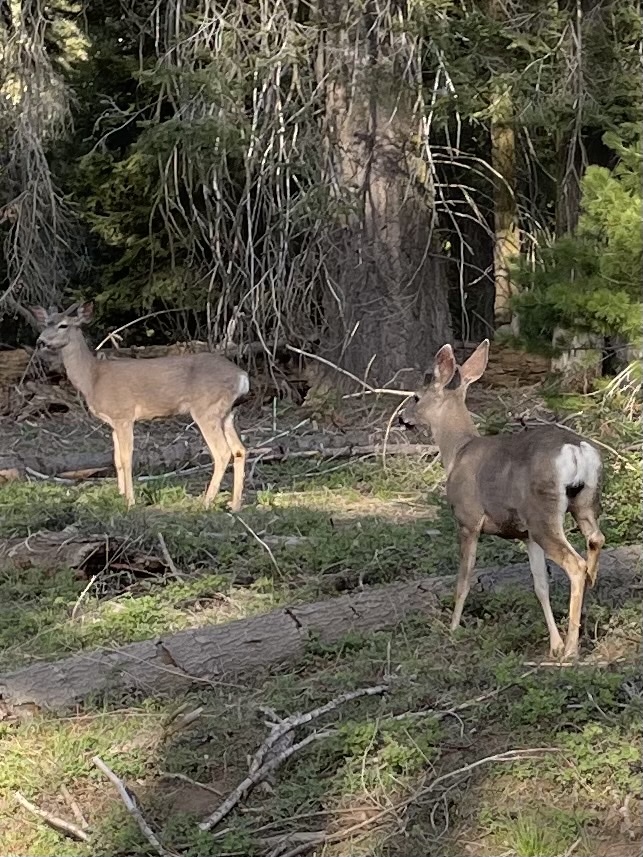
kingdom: Animalia
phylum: Chordata
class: Mammalia
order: Artiodactyla
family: Cervidae
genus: Odocoileus
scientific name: Odocoileus hemionus
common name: Mule deer
